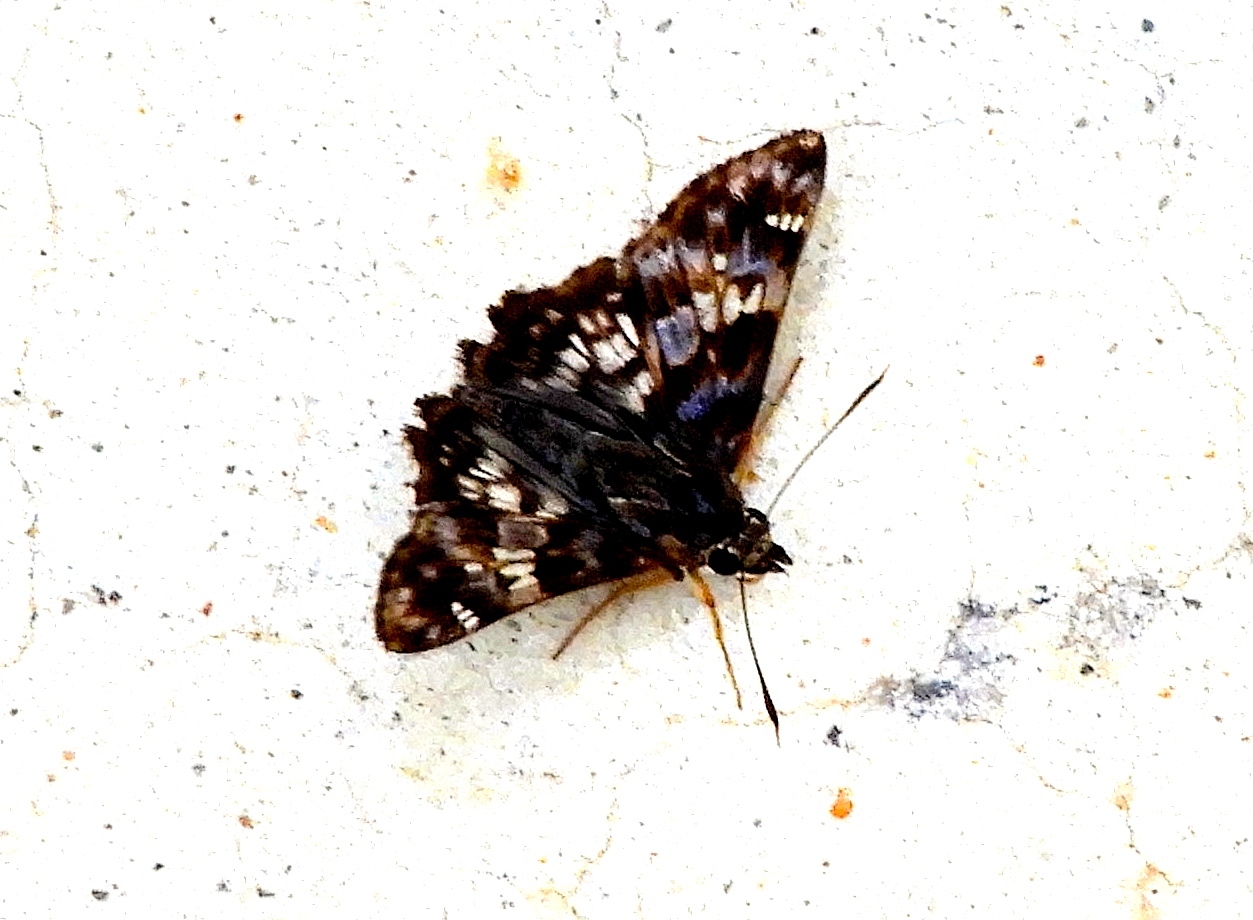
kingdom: Animalia
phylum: Arthropoda
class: Insecta
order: Lepidoptera
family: Hesperiidae
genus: Pyrginae
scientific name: Pyrginae
